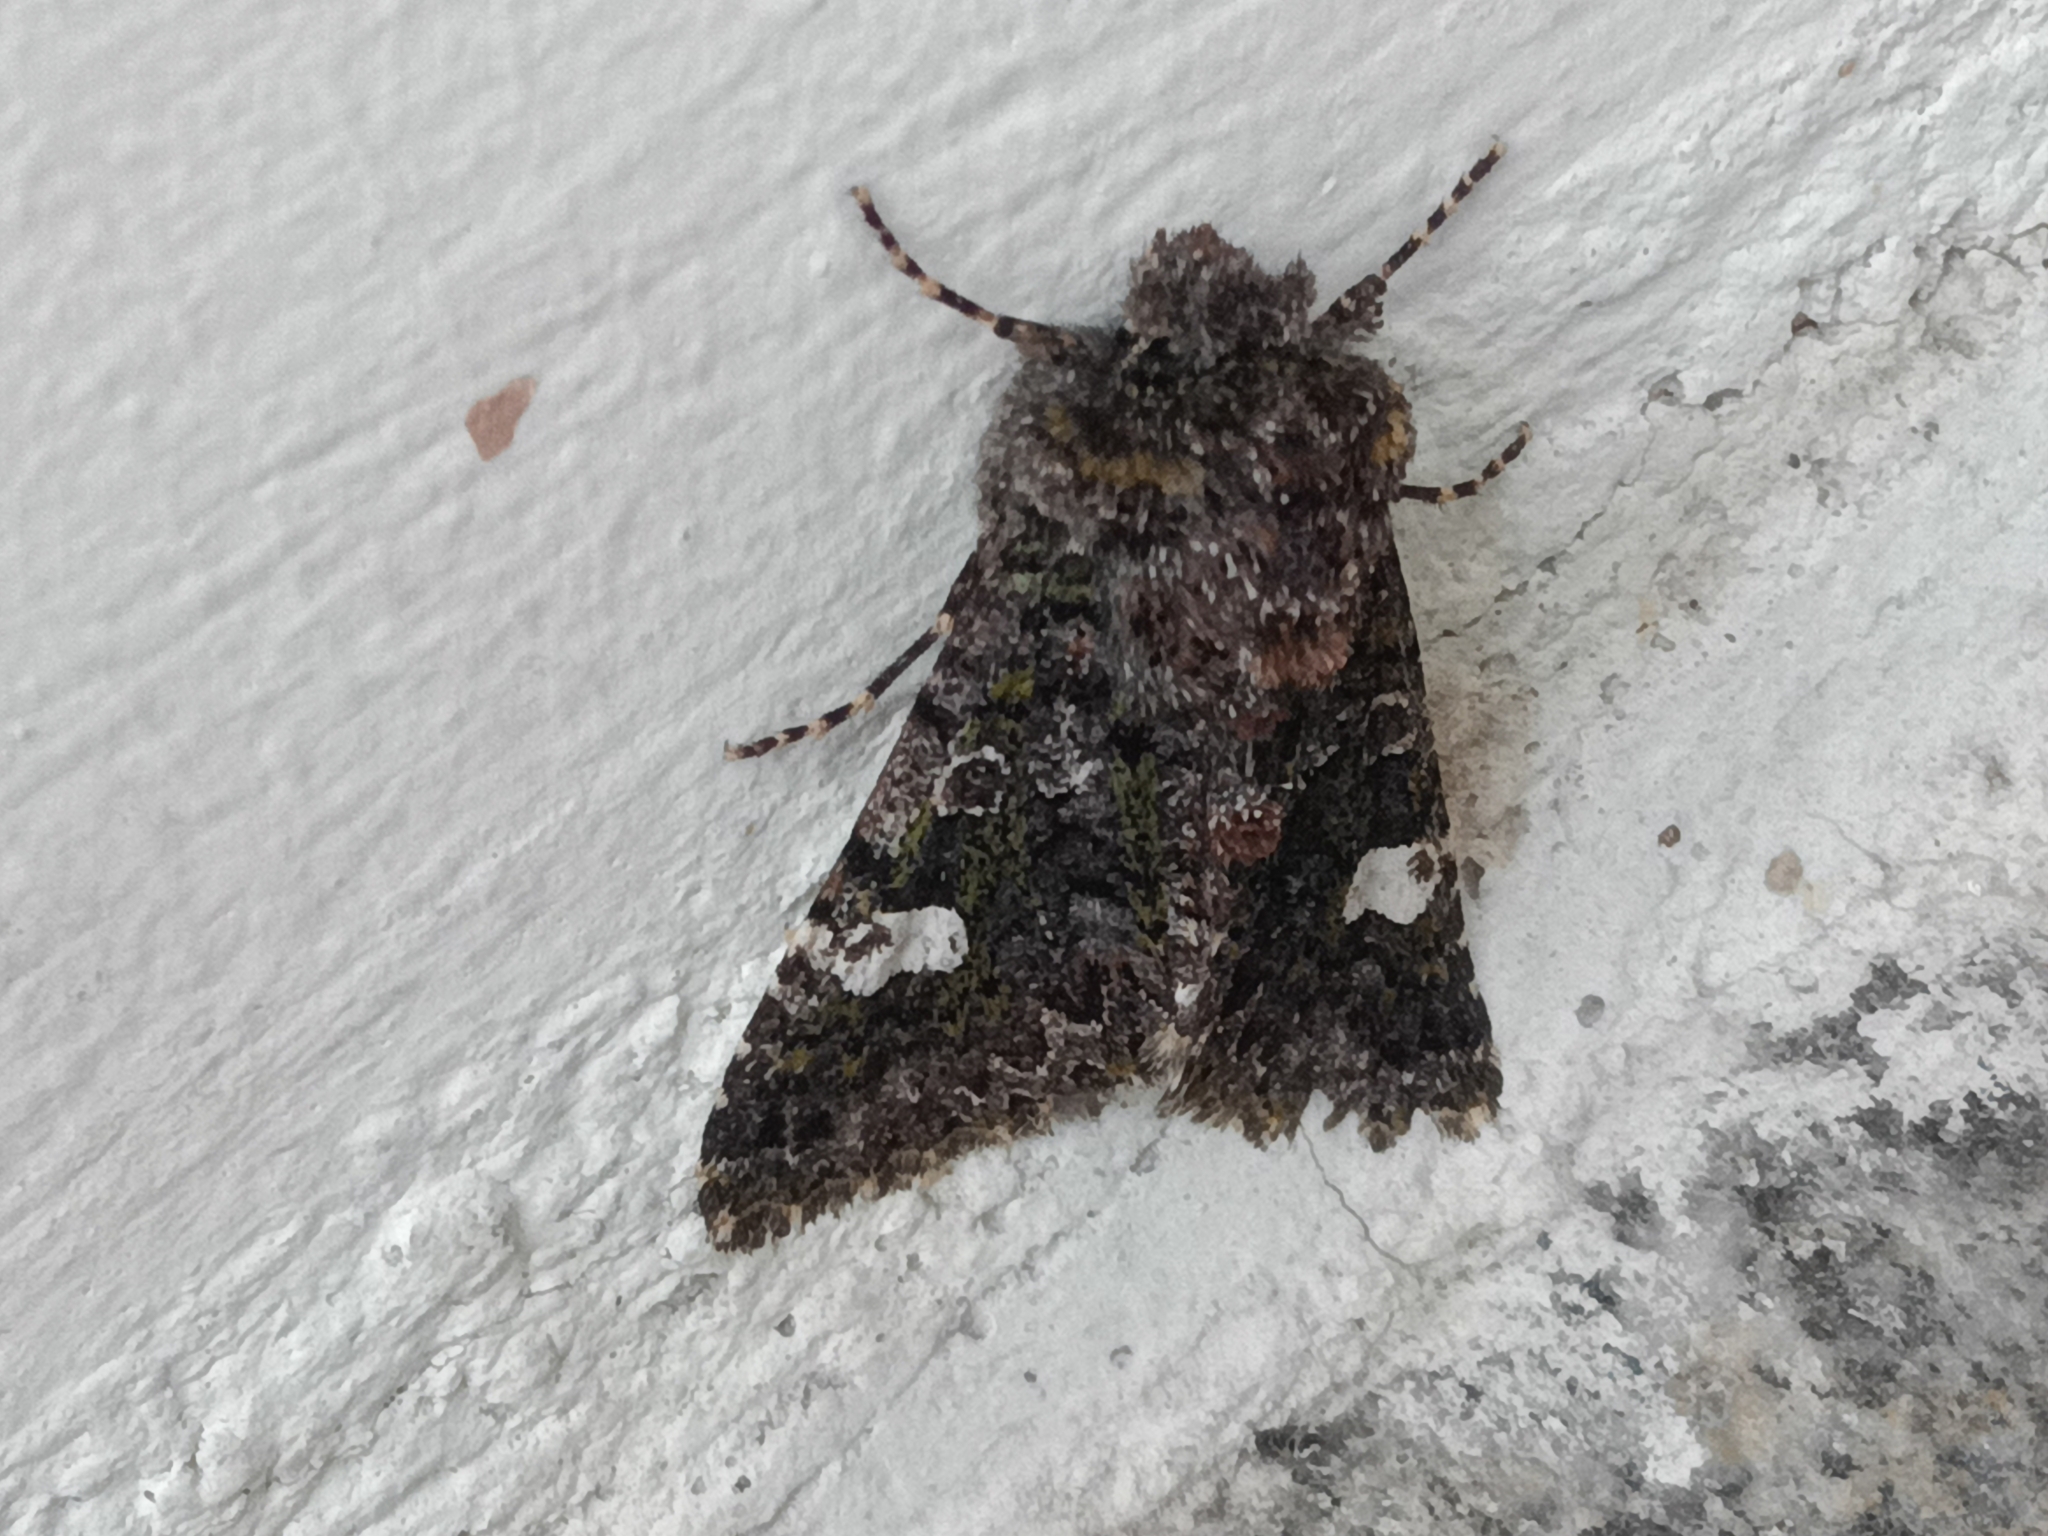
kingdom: Animalia
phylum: Arthropoda
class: Insecta
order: Lepidoptera
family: Noctuidae
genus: Valeria
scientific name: Valeria oleagina
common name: Green-brindled dot
